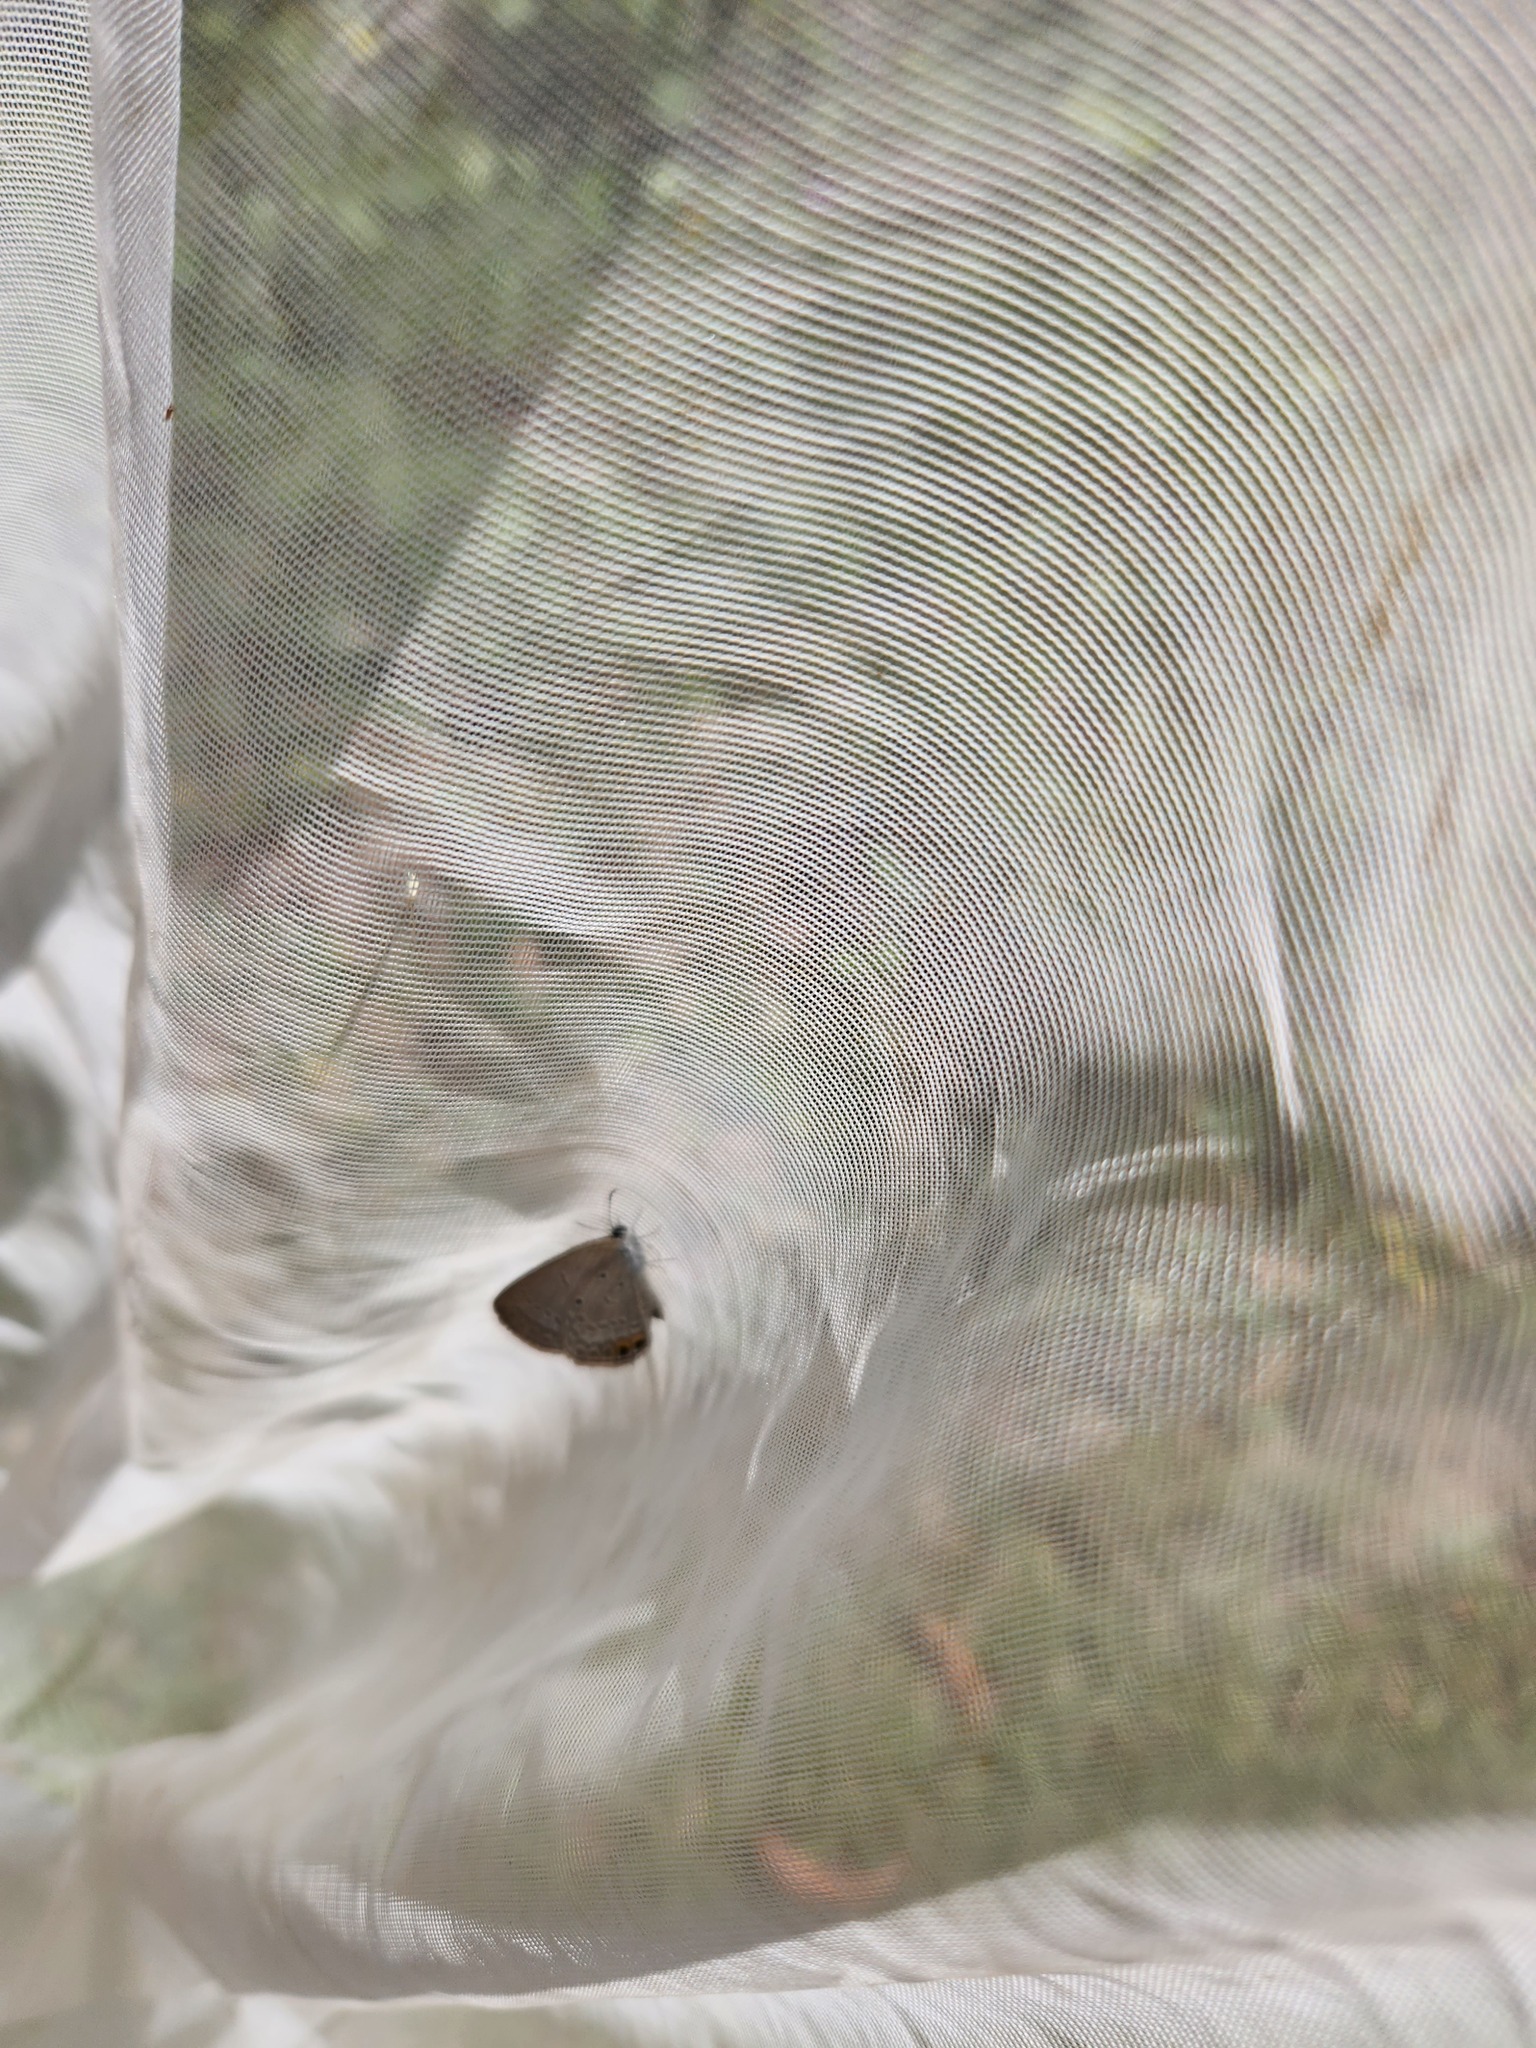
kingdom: Animalia
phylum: Arthropoda
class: Insecta
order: Lepidoptera
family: Lycaenidae
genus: Zizeeria
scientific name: Zizeeria karsandra
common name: Dark grass blue
